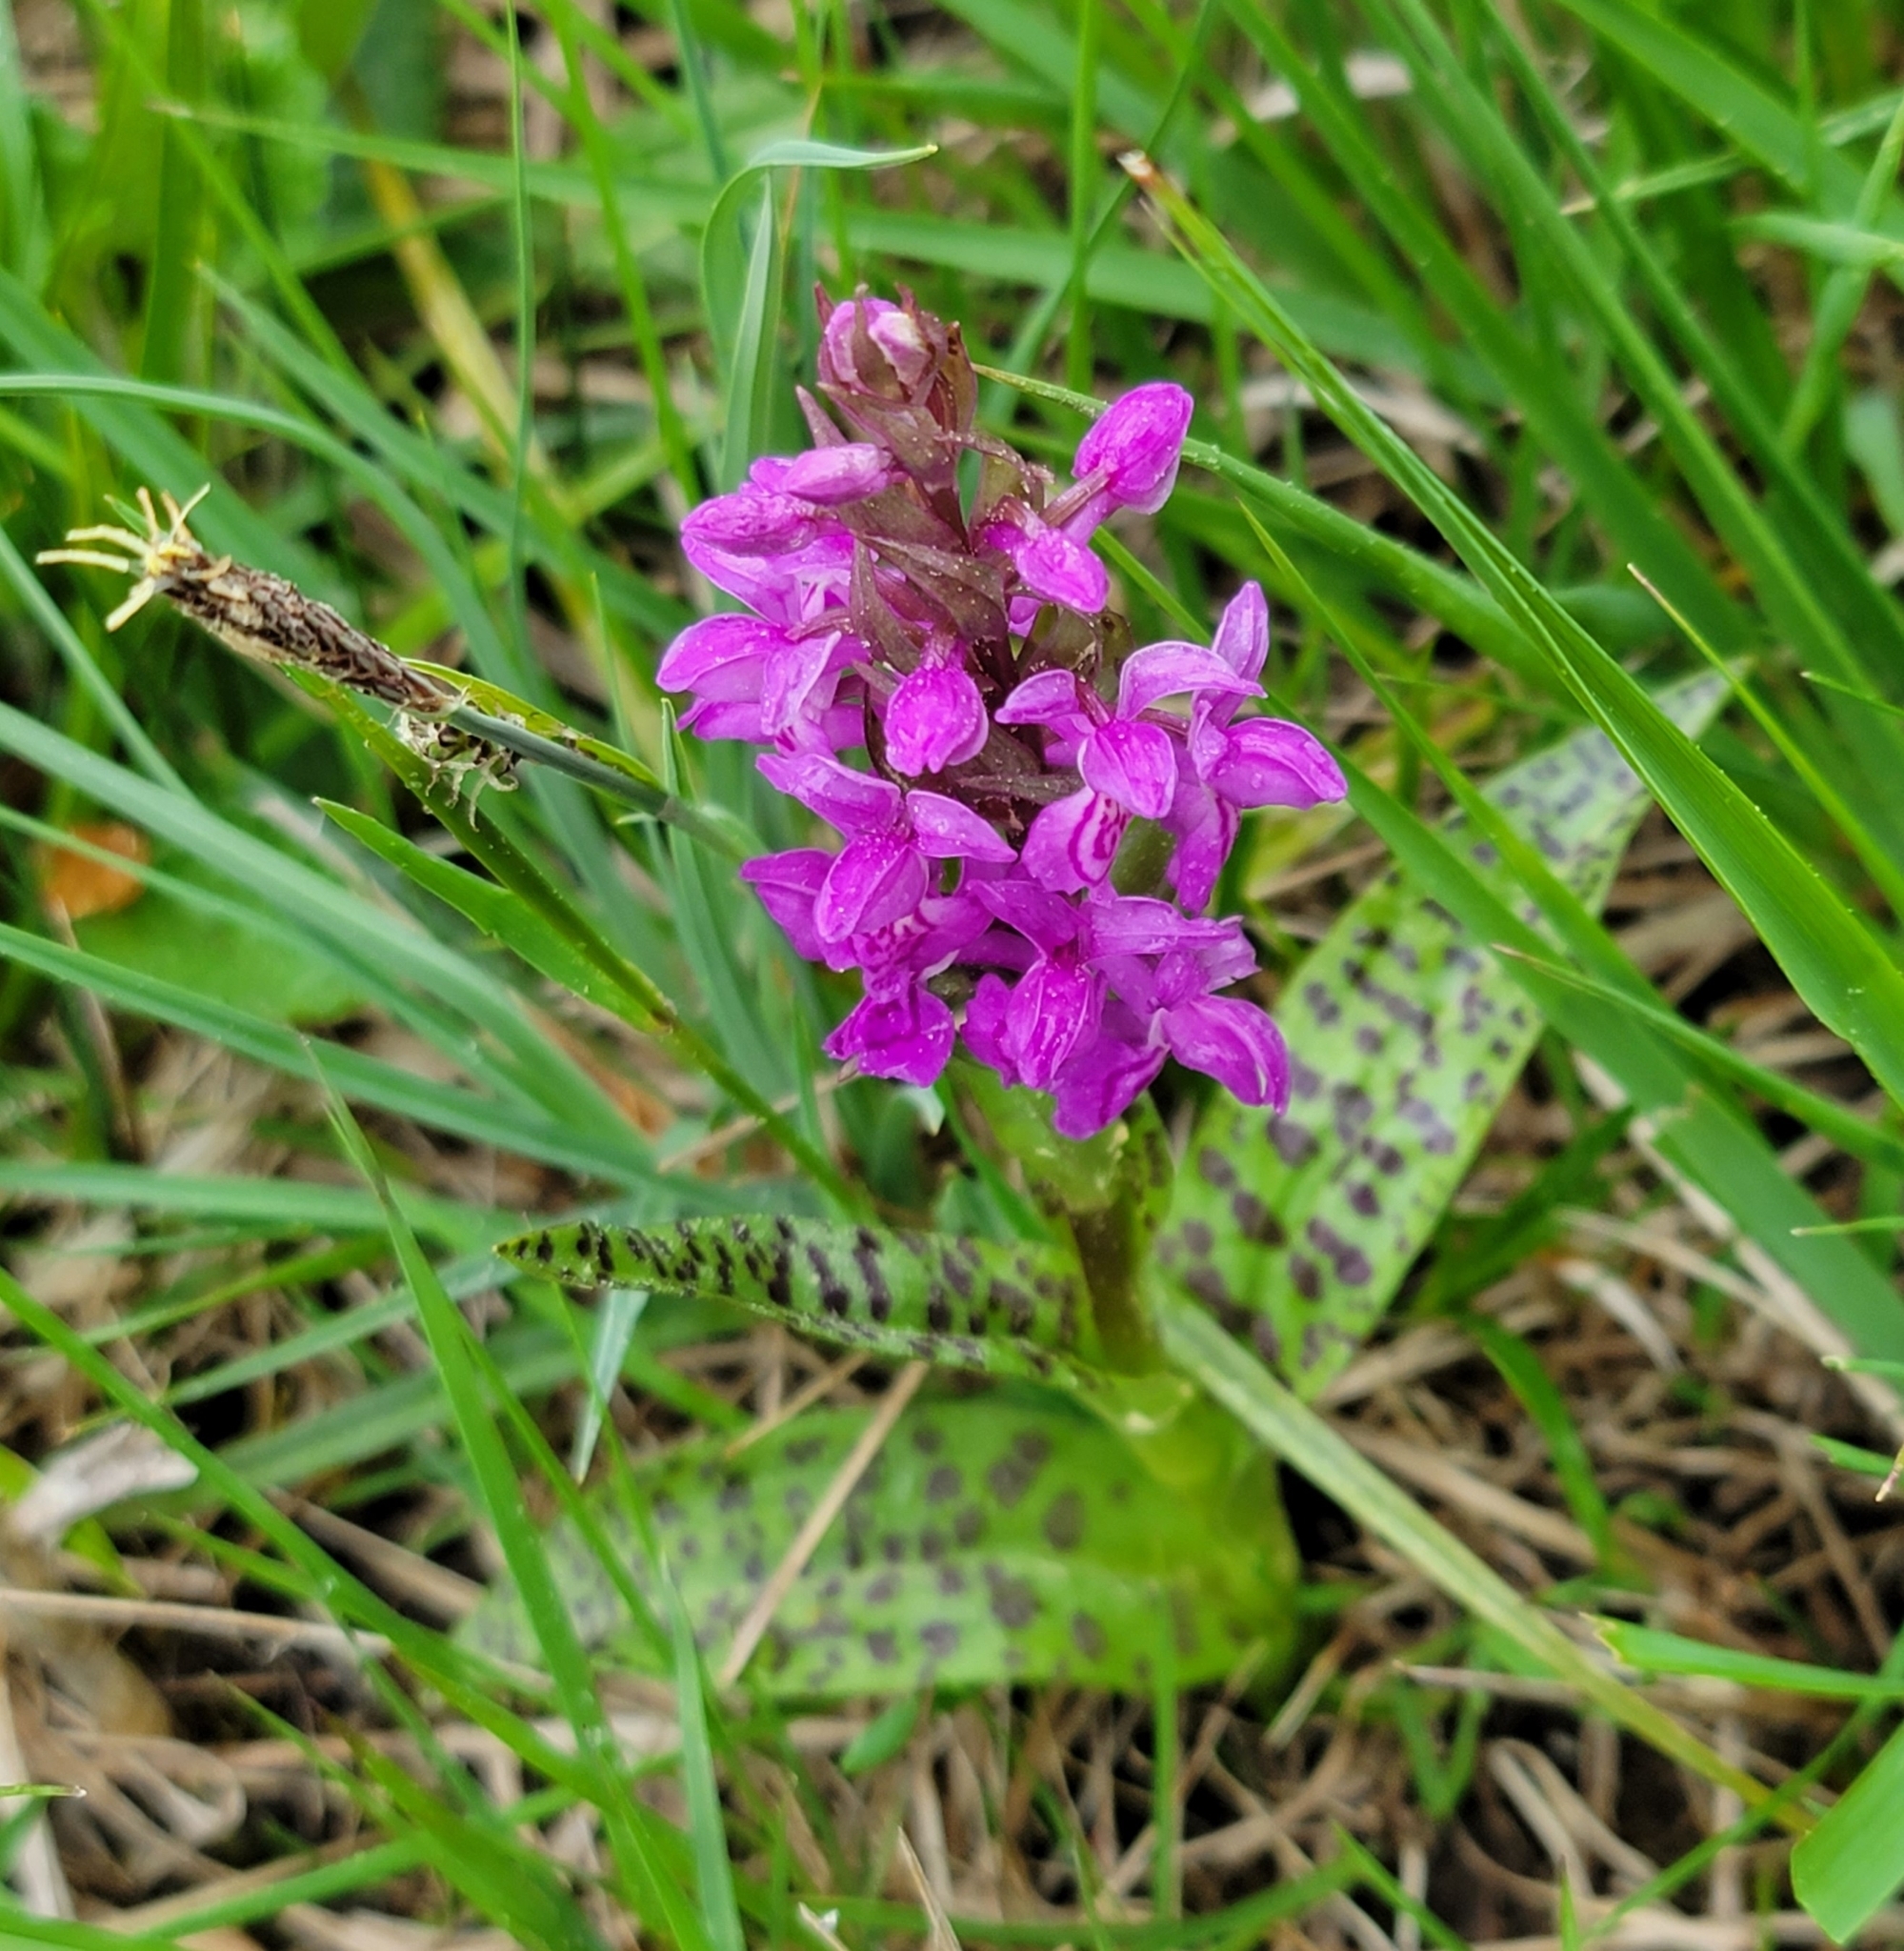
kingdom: Plantae
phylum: Tracheophyta
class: Liliopsida
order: Asparagales
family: Orchidaceae
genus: Dactylorhiza
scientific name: Dactylorhiza majalis
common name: Marsh orchid
